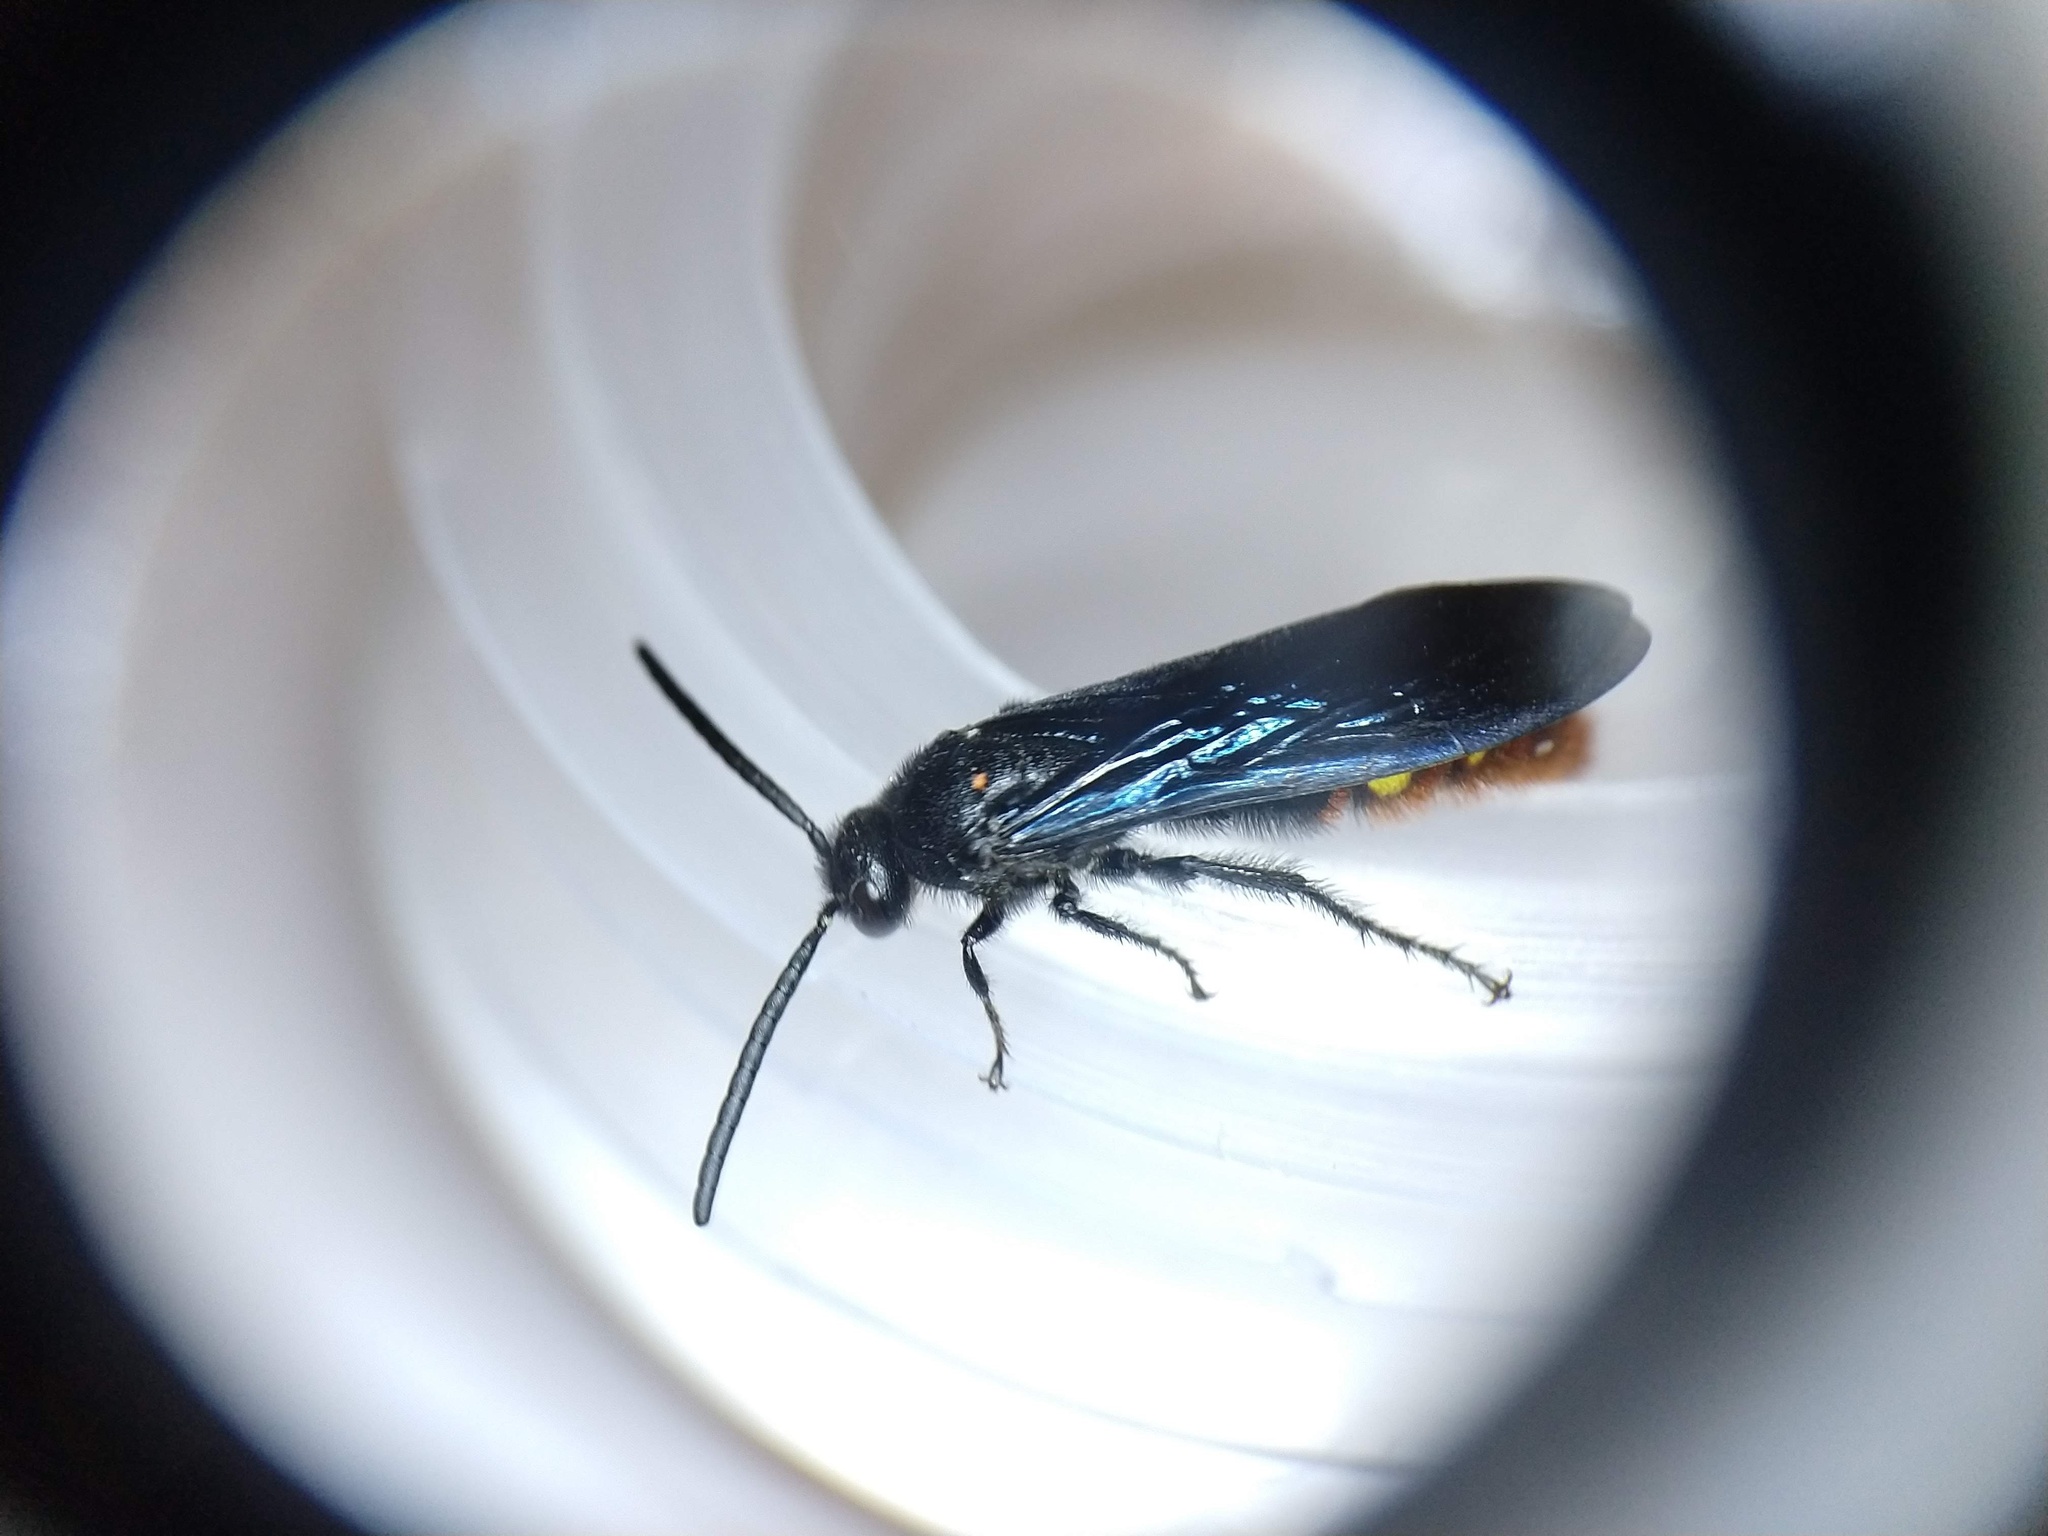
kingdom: Animalia
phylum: Arthropoda
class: Insecta
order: Hymenoptera
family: Scoliidae
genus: Scolia
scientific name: Scolia dubia
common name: Blue-winged scoliid wasp
